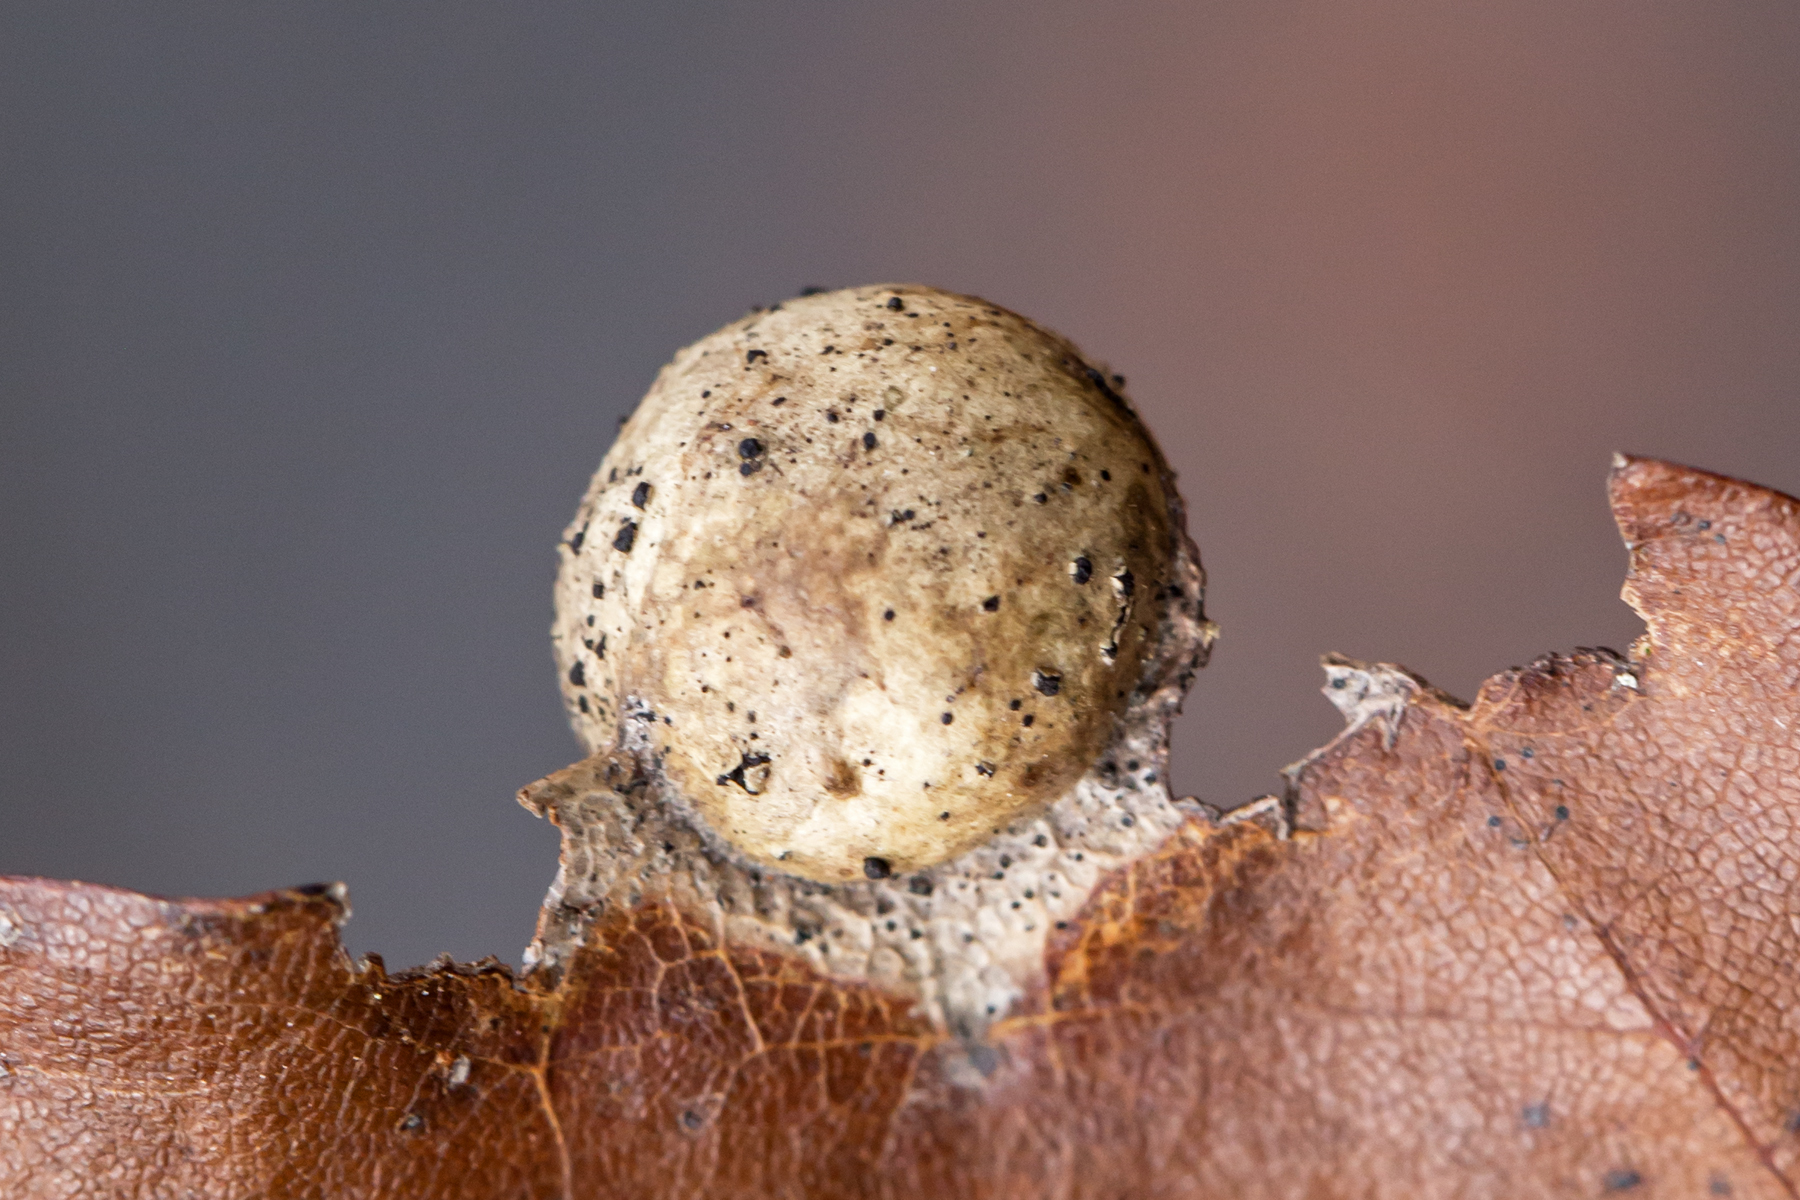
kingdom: Animalia
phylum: Arthropoda
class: Insecta
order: Hymenoptera
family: Cynipidae
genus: Amphibolips
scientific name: Amphibolips
